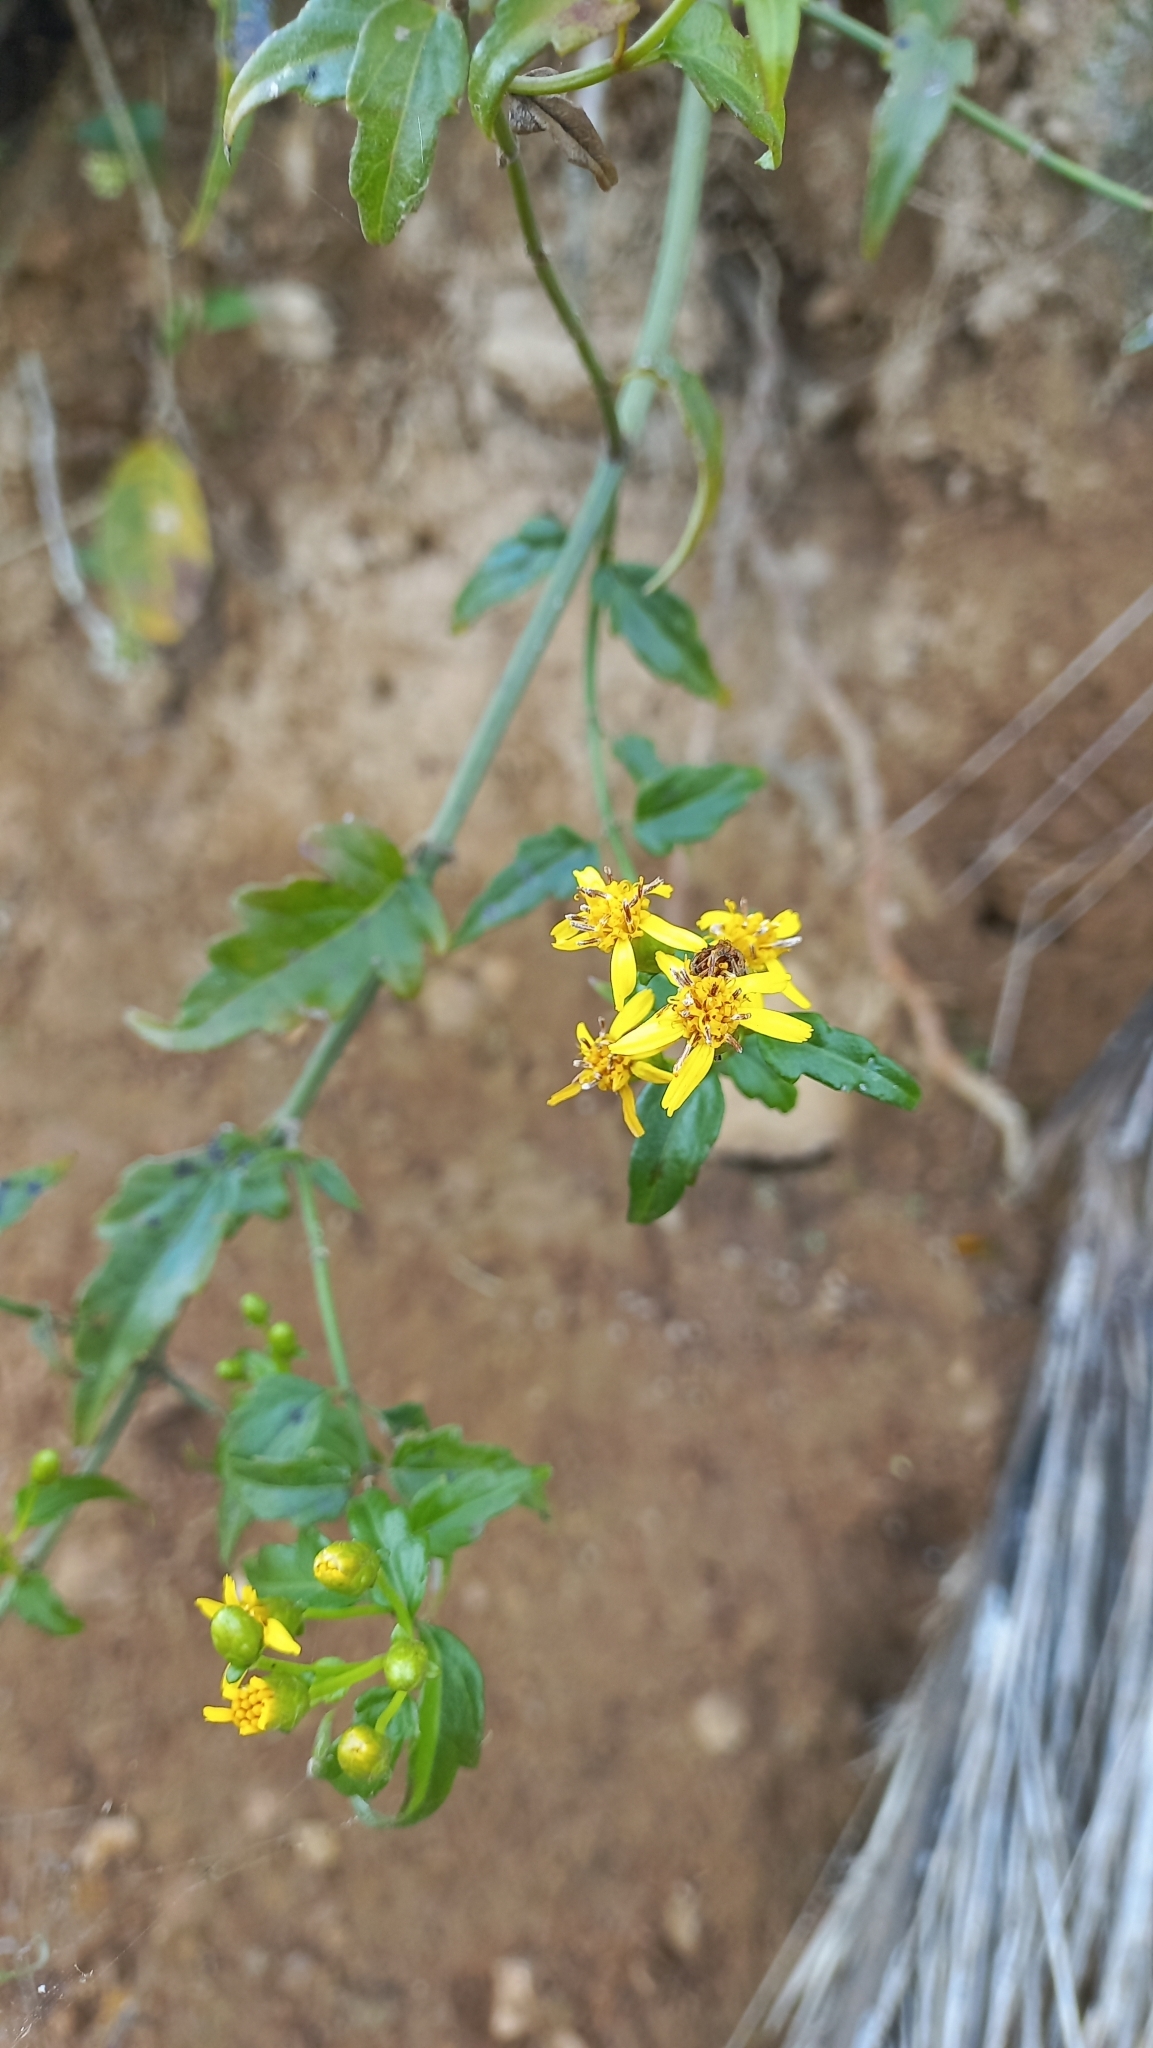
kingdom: Plantae
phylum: Tracheophyta
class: Magnoliopsida
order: Asterales
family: Asteraceae
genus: Calea
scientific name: Calea pinnatifida
